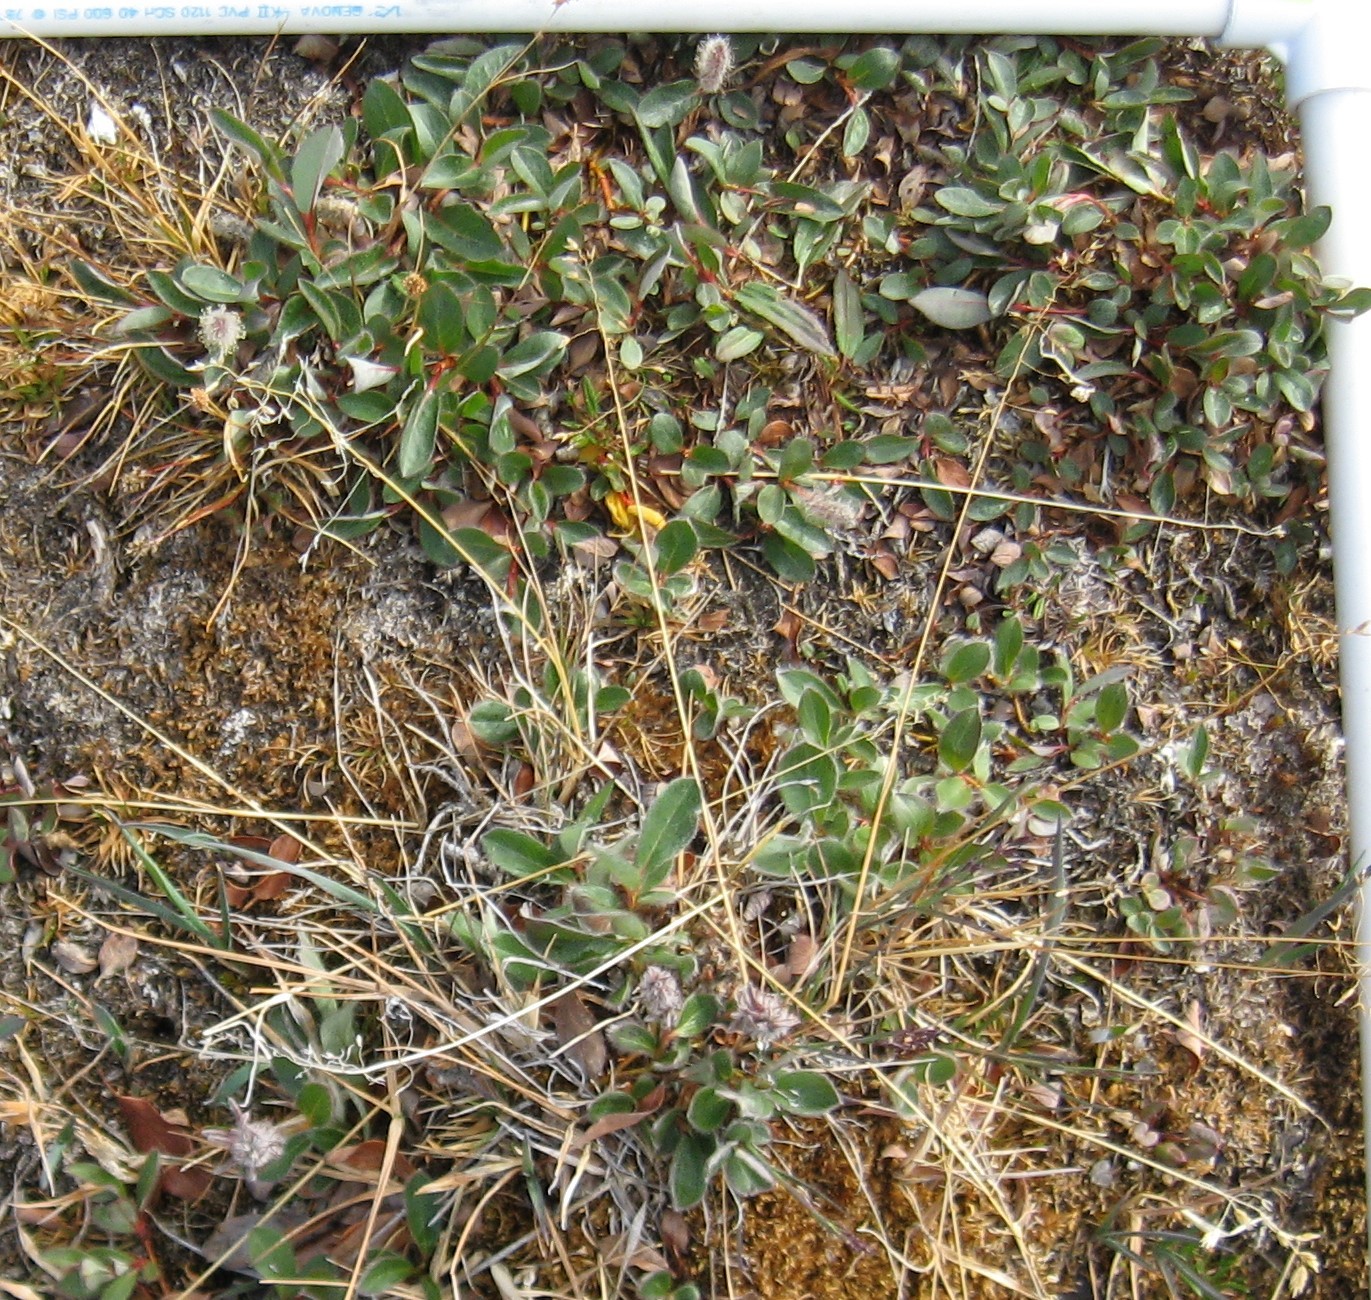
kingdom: Plantae
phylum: Tracheophyta
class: Magnoliopsida
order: Malpighiales
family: Salicaceae
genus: Salix
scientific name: Salix arctica
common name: Arctic willow
